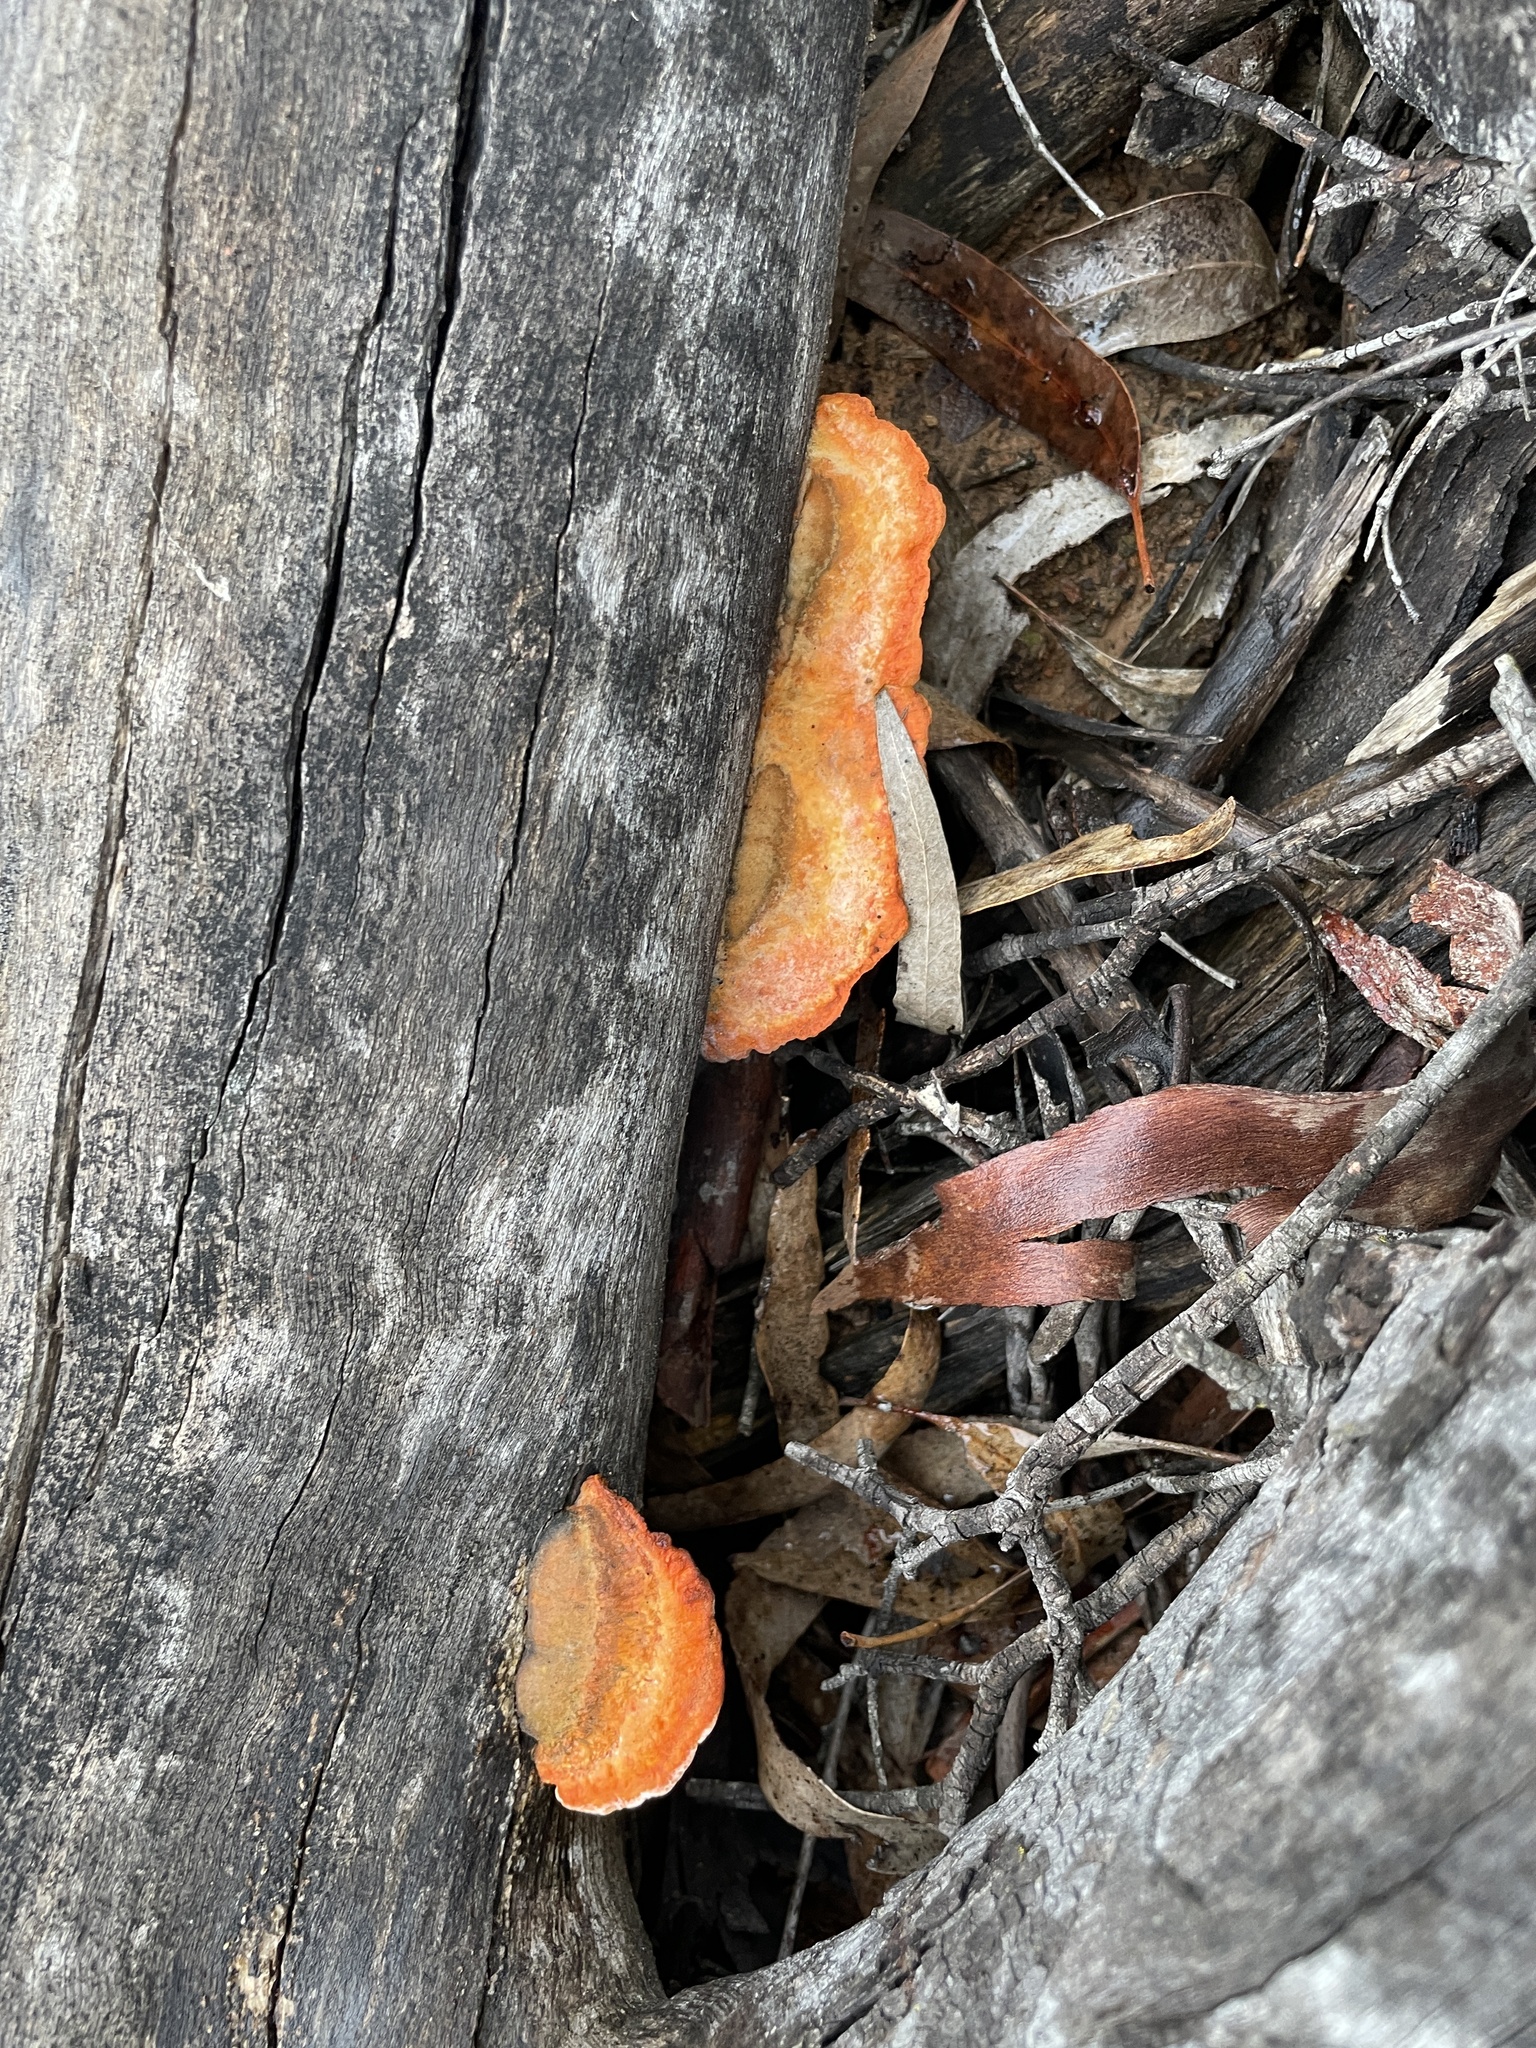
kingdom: Fungi
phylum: Basidiomycota
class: Agaricomycetes
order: Polyporales
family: Polyporaceae
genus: Trametes
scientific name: Trametes coccinea
